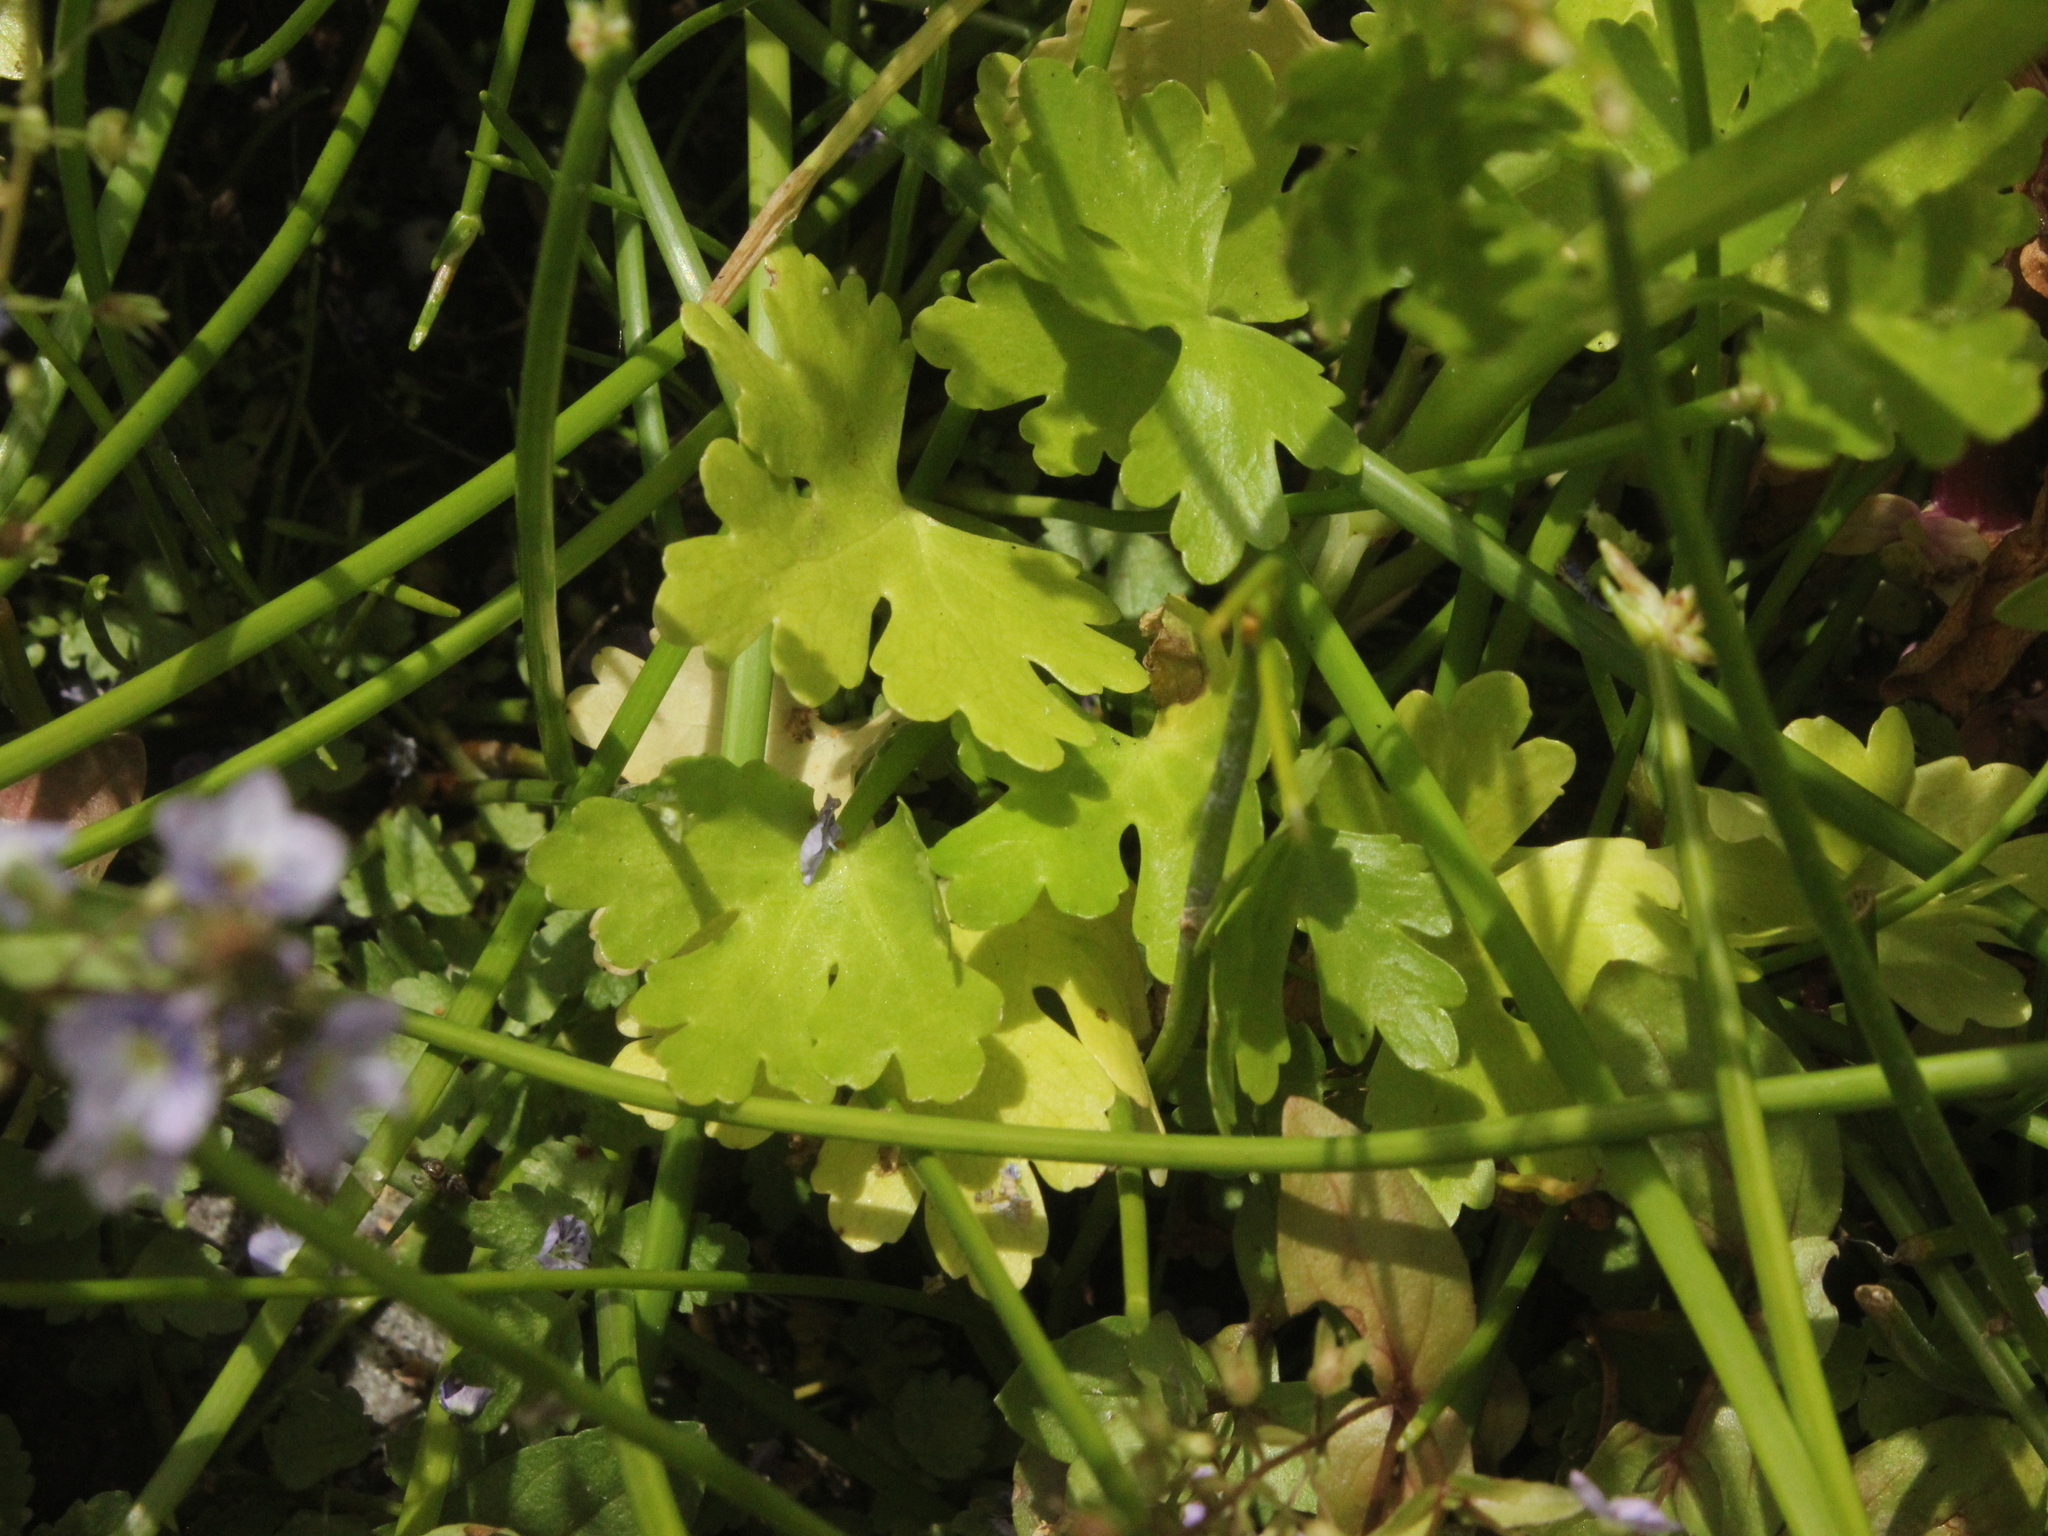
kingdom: Plantae
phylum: Tracheophyta
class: Magnoliopsida
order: Ranunculales
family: Ranunculaceae
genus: Ranunculus
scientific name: Ranunculus sceleratus
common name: Celery-leaved buttercup
